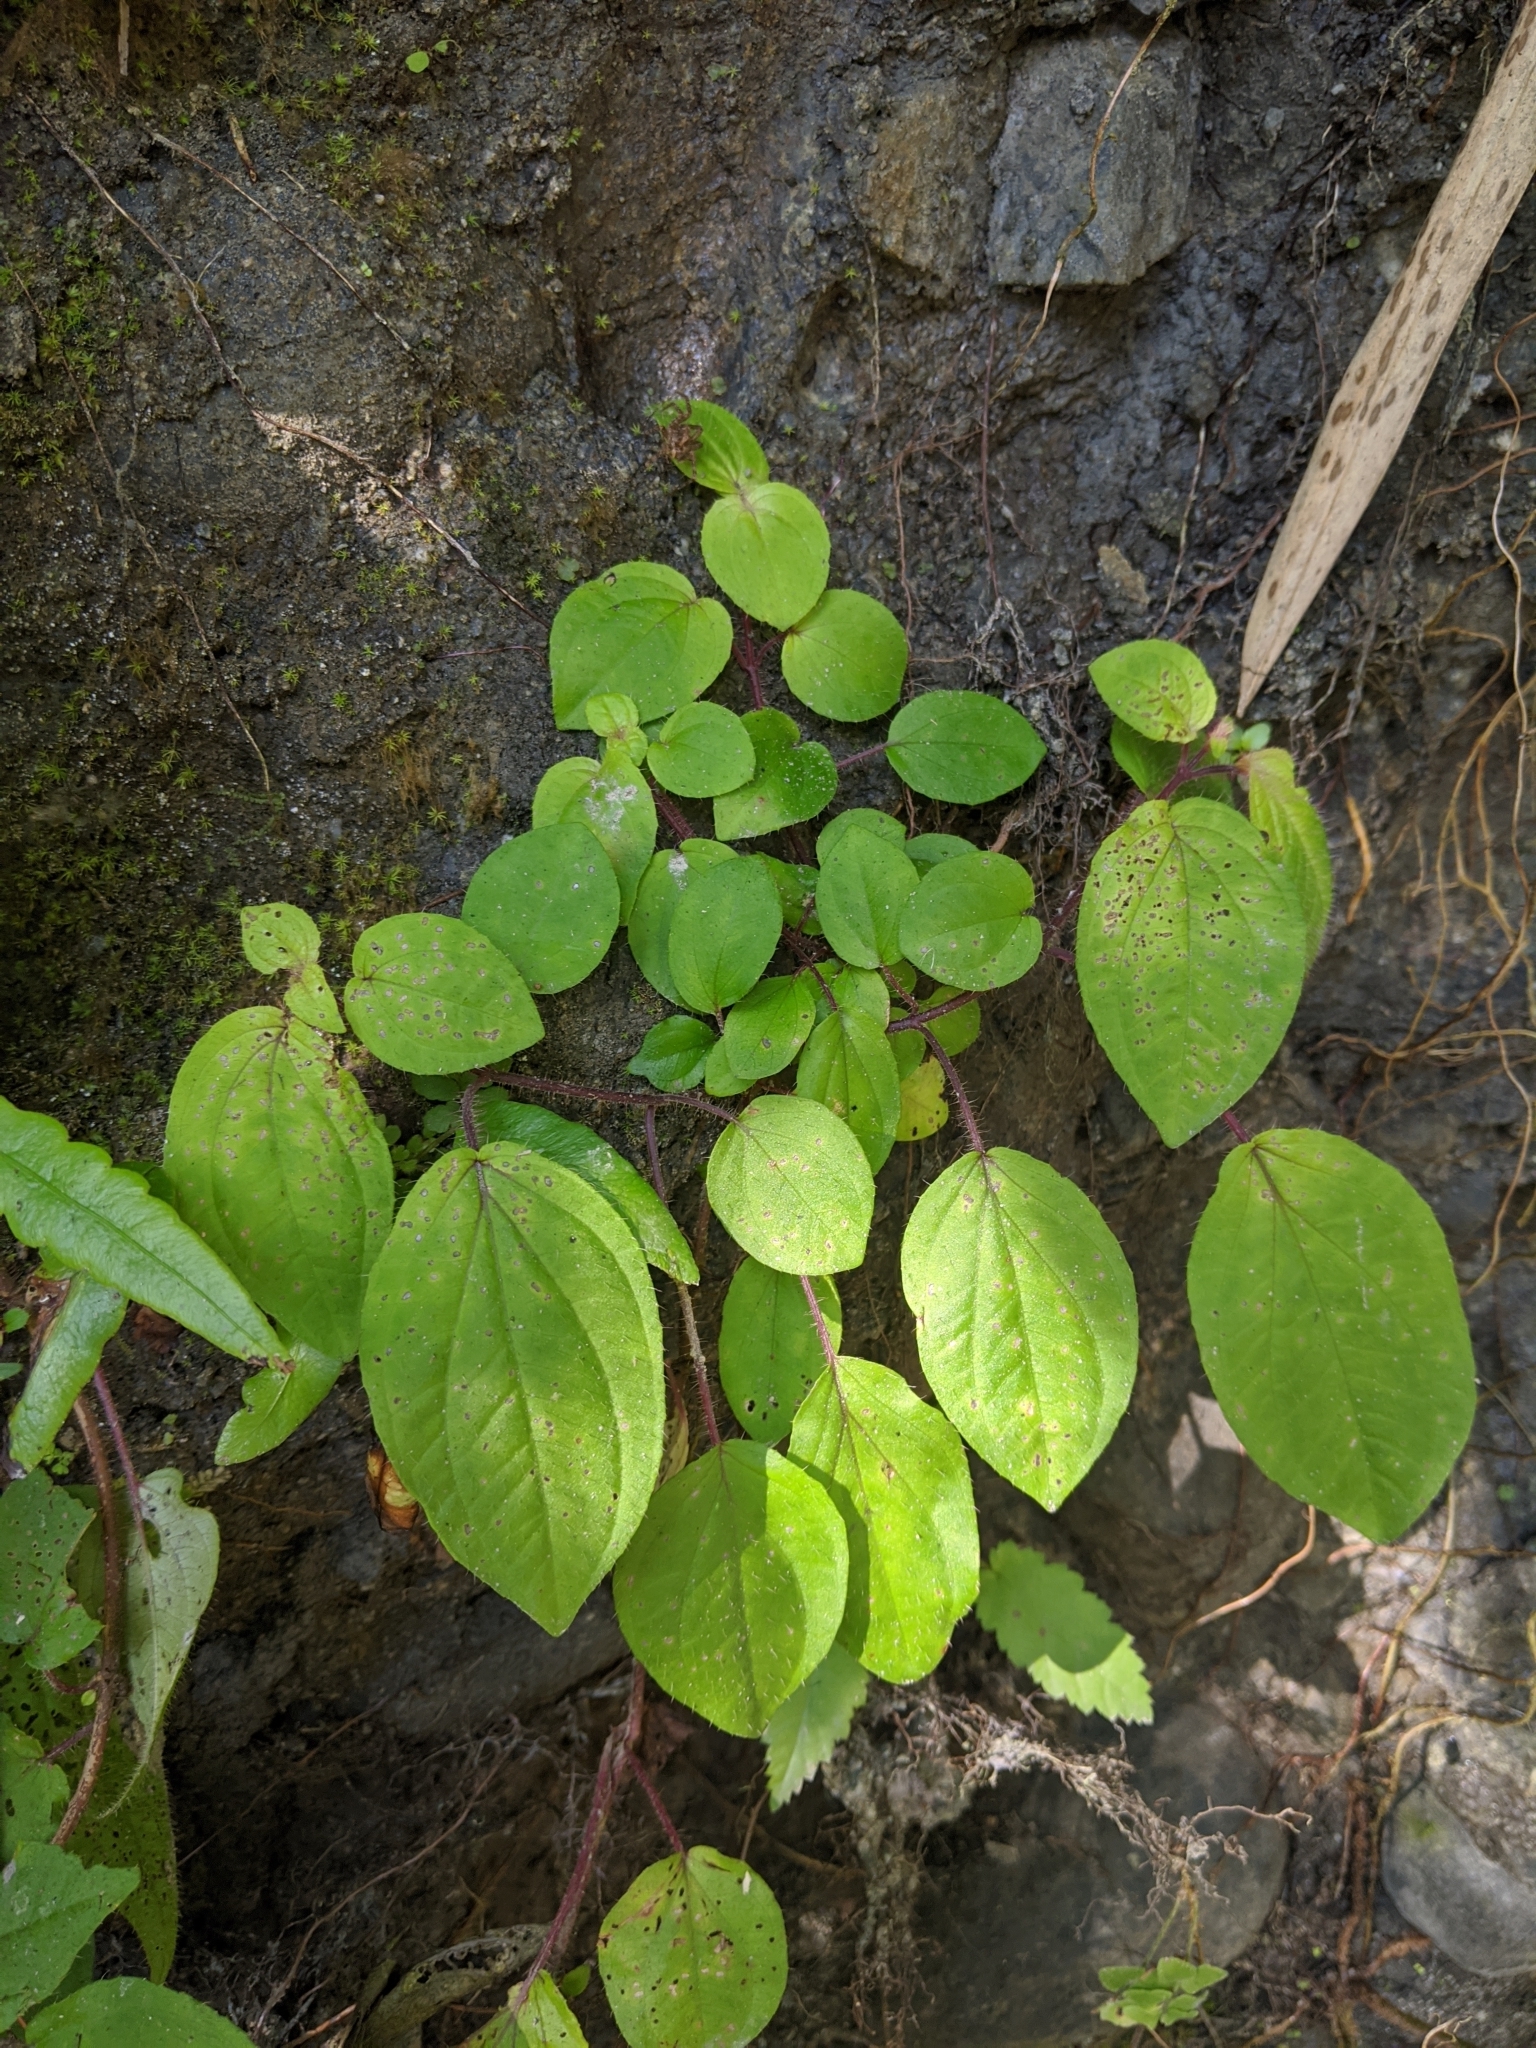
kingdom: Plantae
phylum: Tracheophyta
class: Magnoliopsida
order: Myrtales
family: Melastomataceae
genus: Bredia
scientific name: Bredia dulanica
